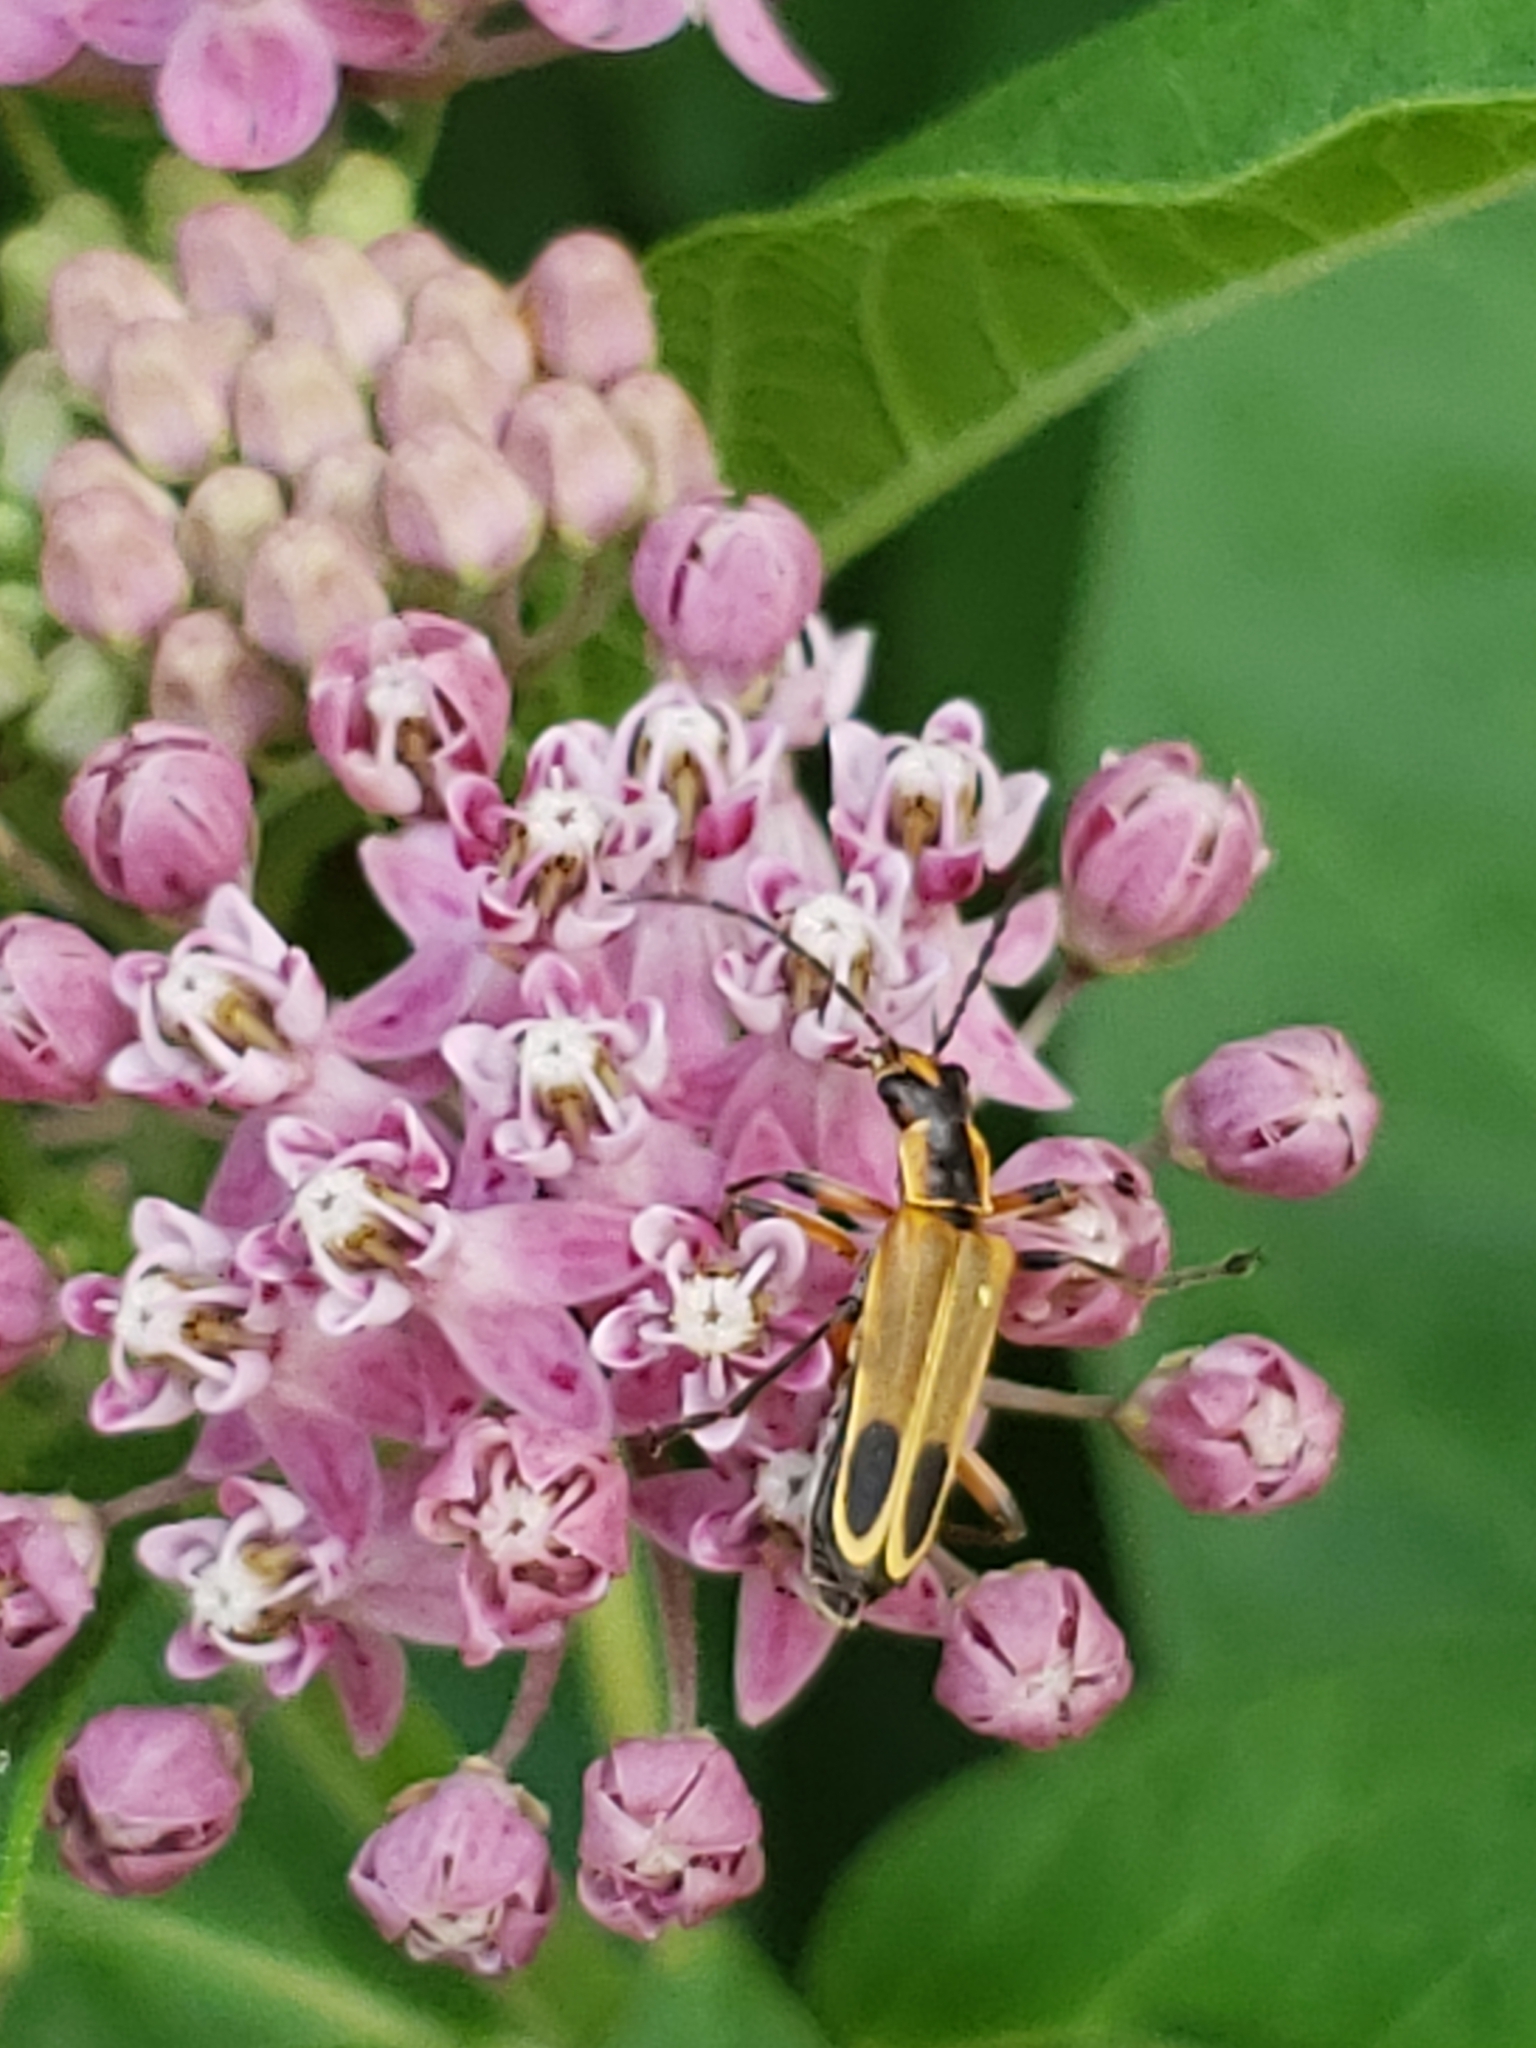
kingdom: Animalia
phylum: Arthropoda
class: Insecta
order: Coleoptera
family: Cantharidae
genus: Chauliognathus
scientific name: Chauliognathus marginatus
